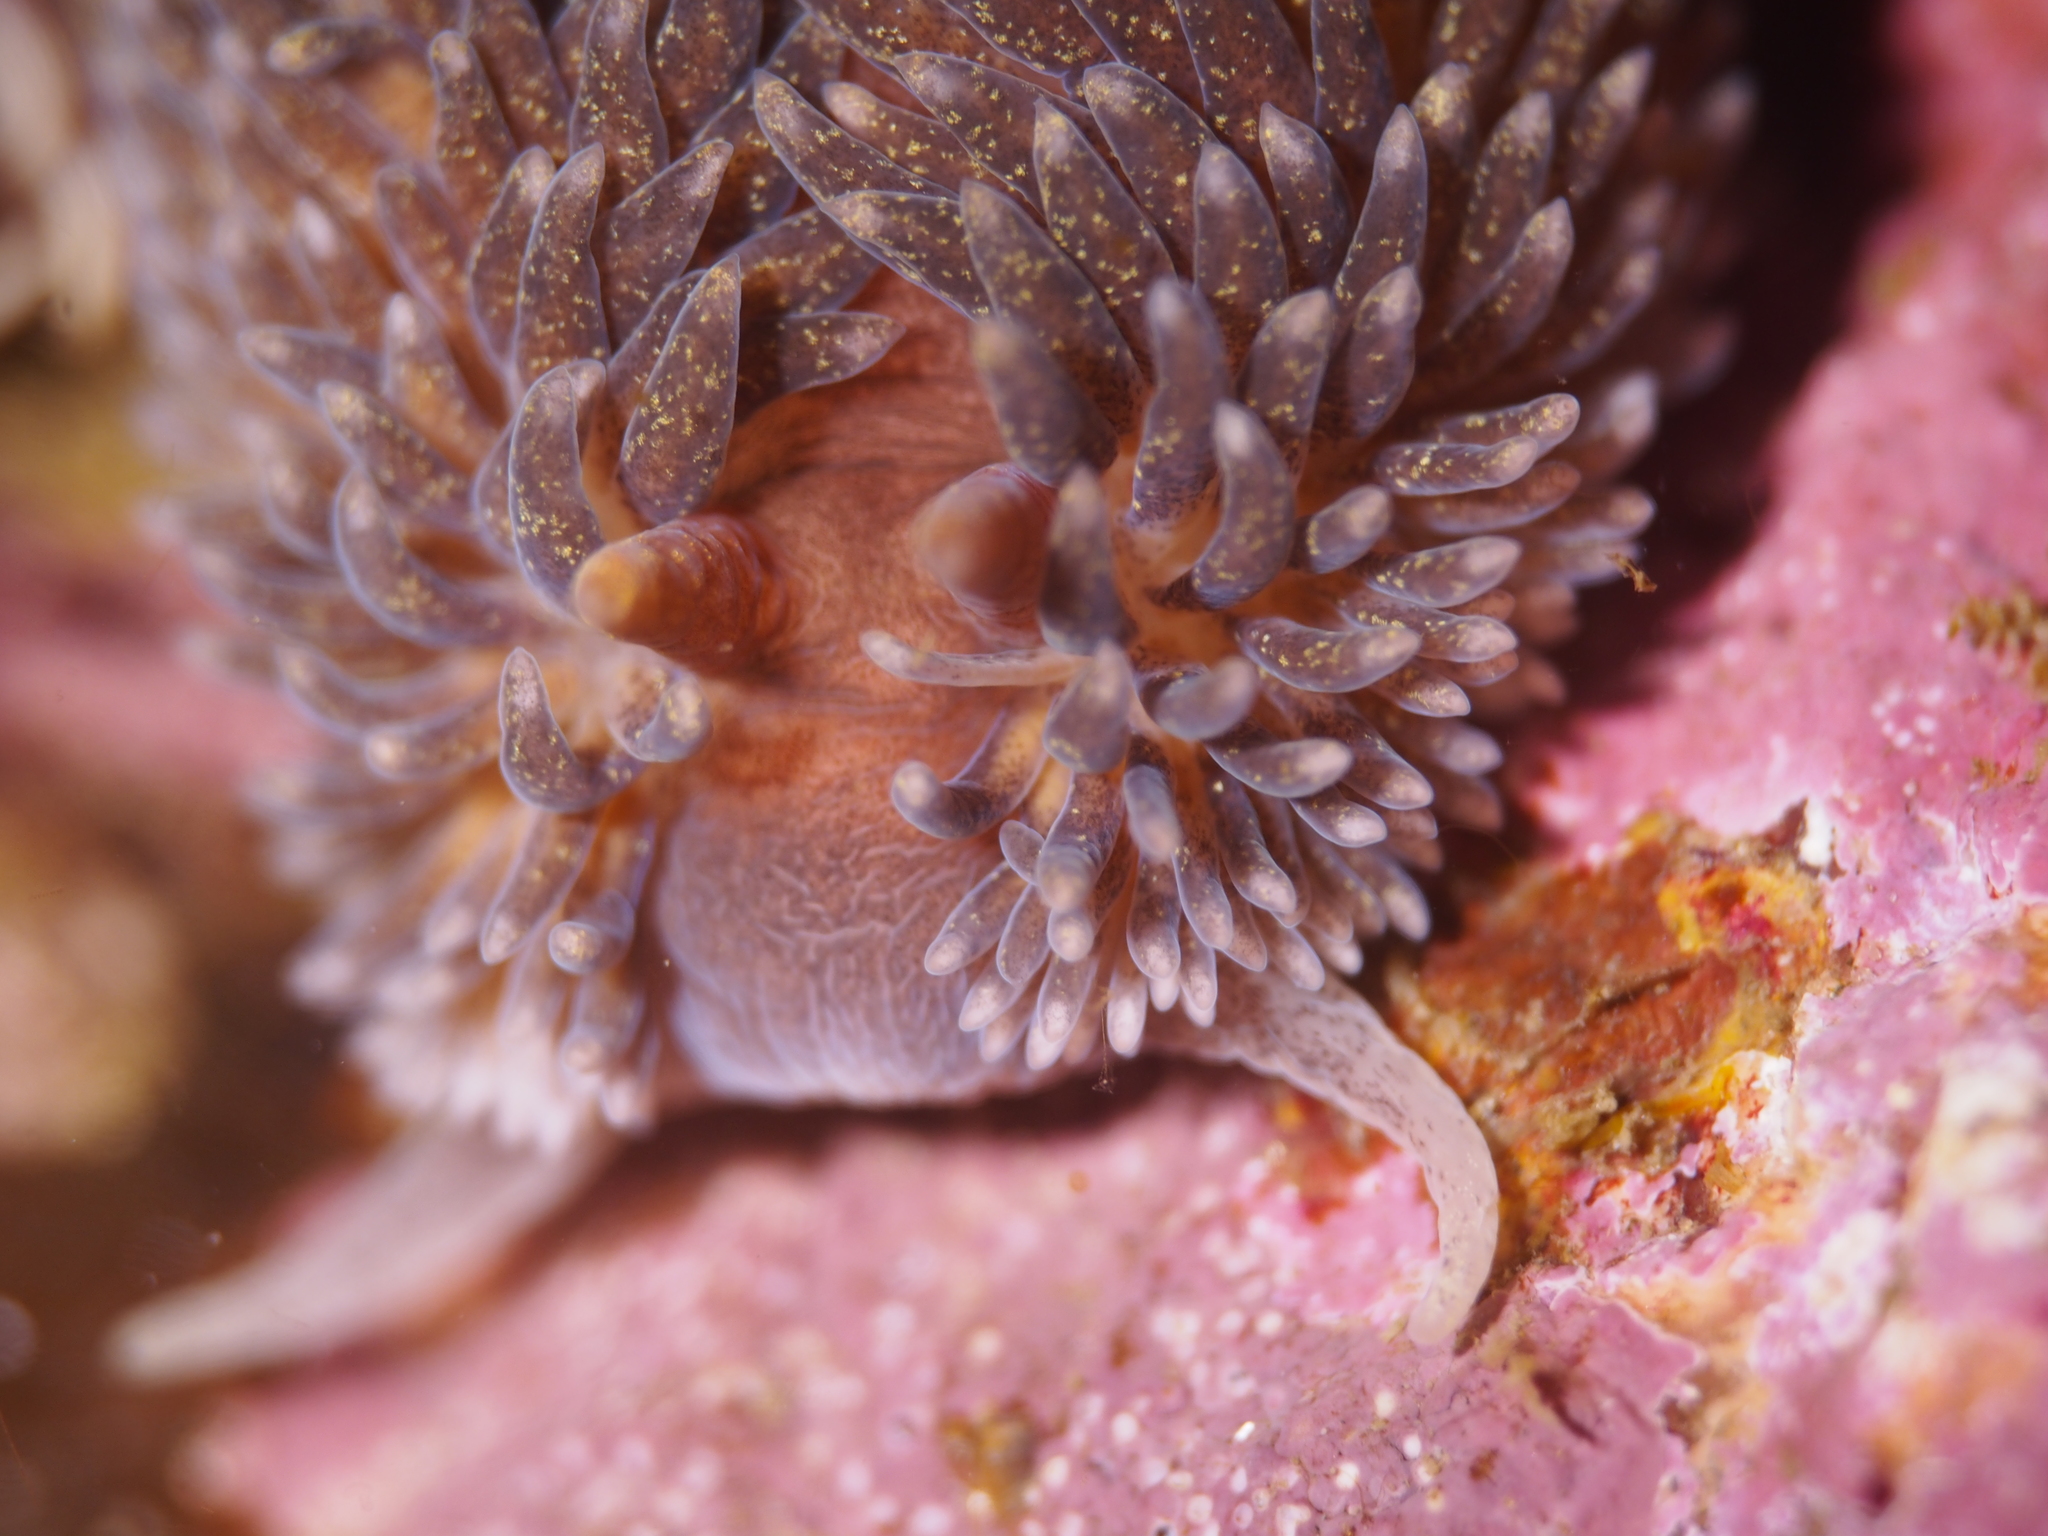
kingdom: Animalia
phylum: Mollusca
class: Gastropoda
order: Nudibranchia
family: Aeolidiidae
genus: Aeolidia
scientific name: Aeolidia papillosa
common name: Common grey sea slug
